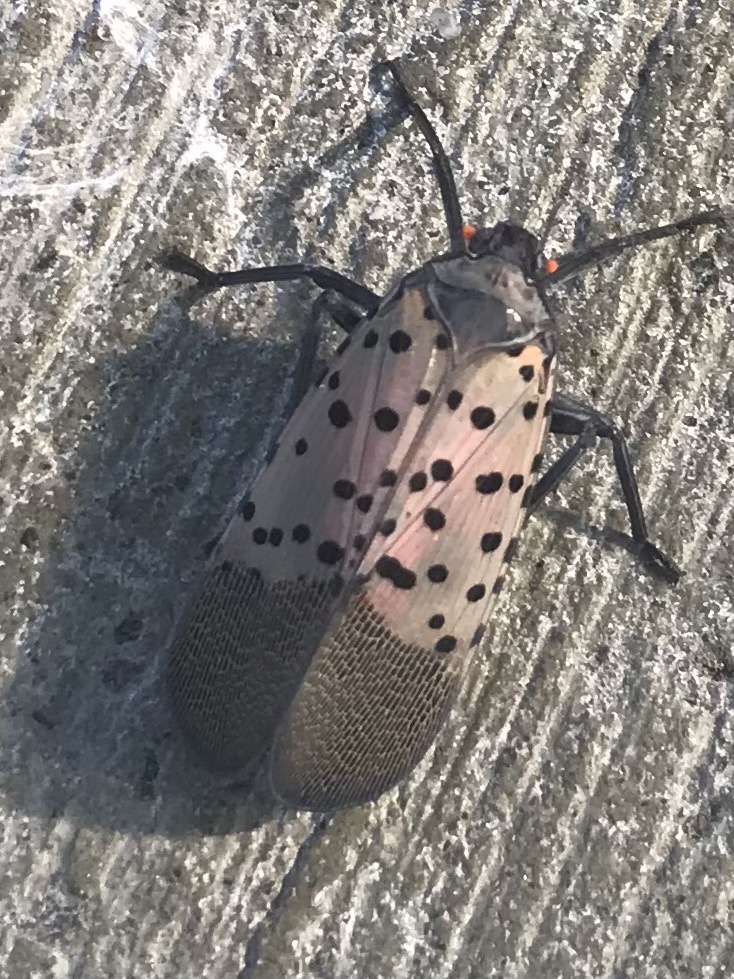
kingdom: Animalia
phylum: Arthropoda
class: Insecta
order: Hemiptera
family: Fulgoridae
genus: Lycorma
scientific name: Lycorma delicatula
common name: Spotted lanternfly
